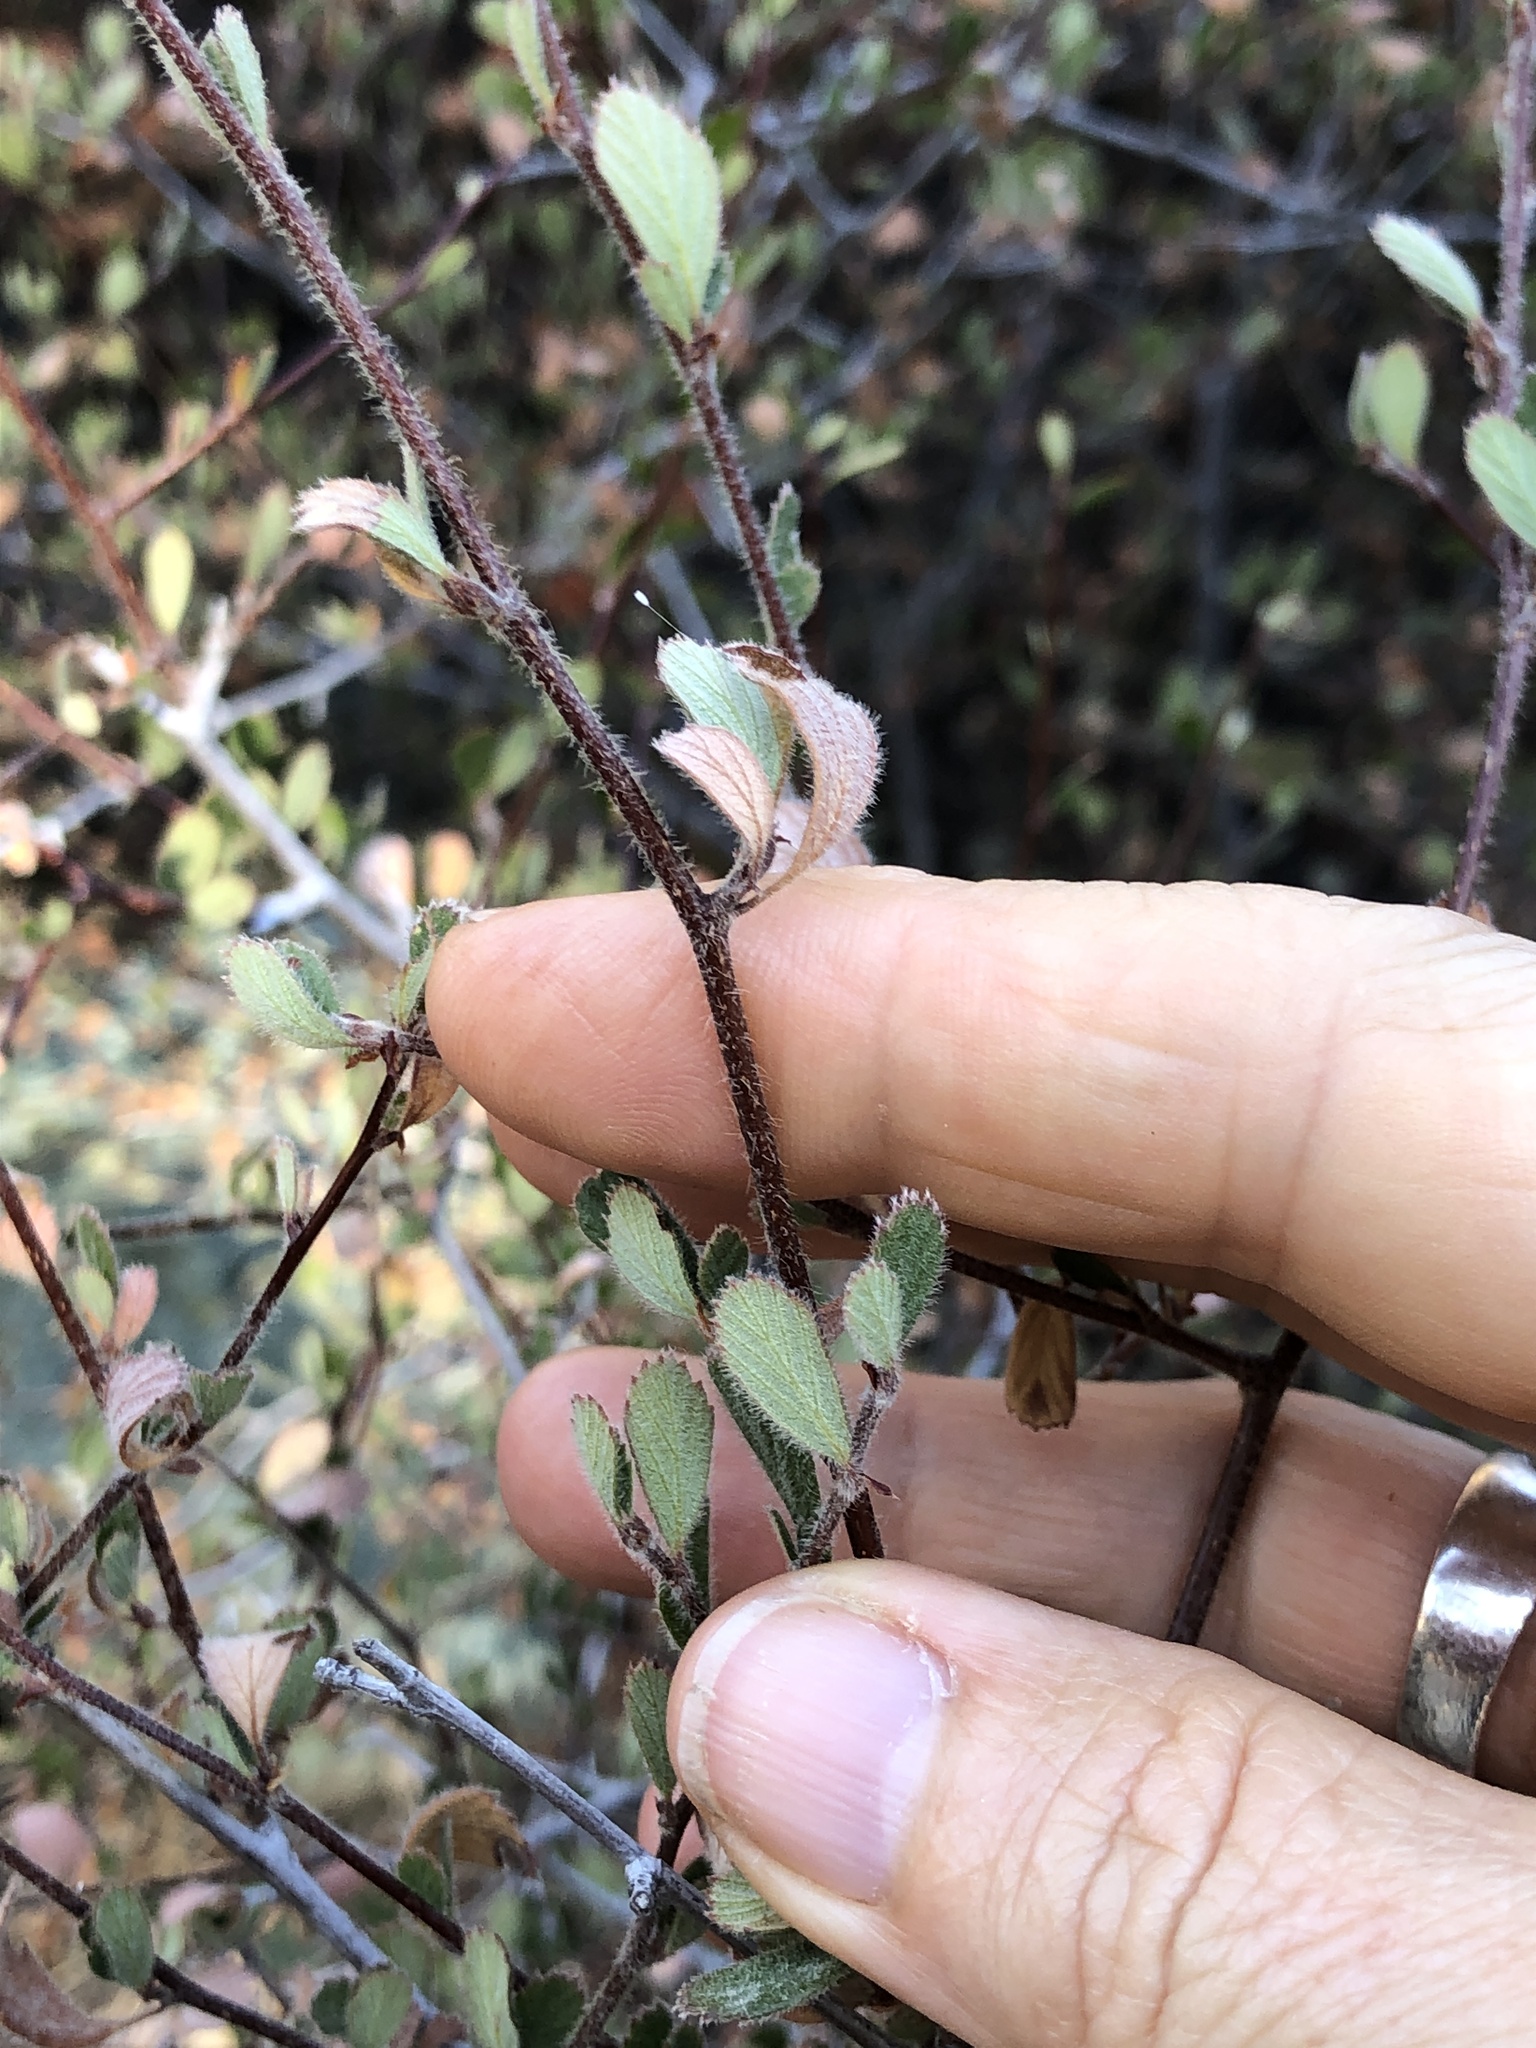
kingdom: Plantae
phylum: Tracheophyta
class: Magnoliopsida
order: Rosales
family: Rosaceae
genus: Cercocarpus
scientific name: Cercocarpus betuloides
